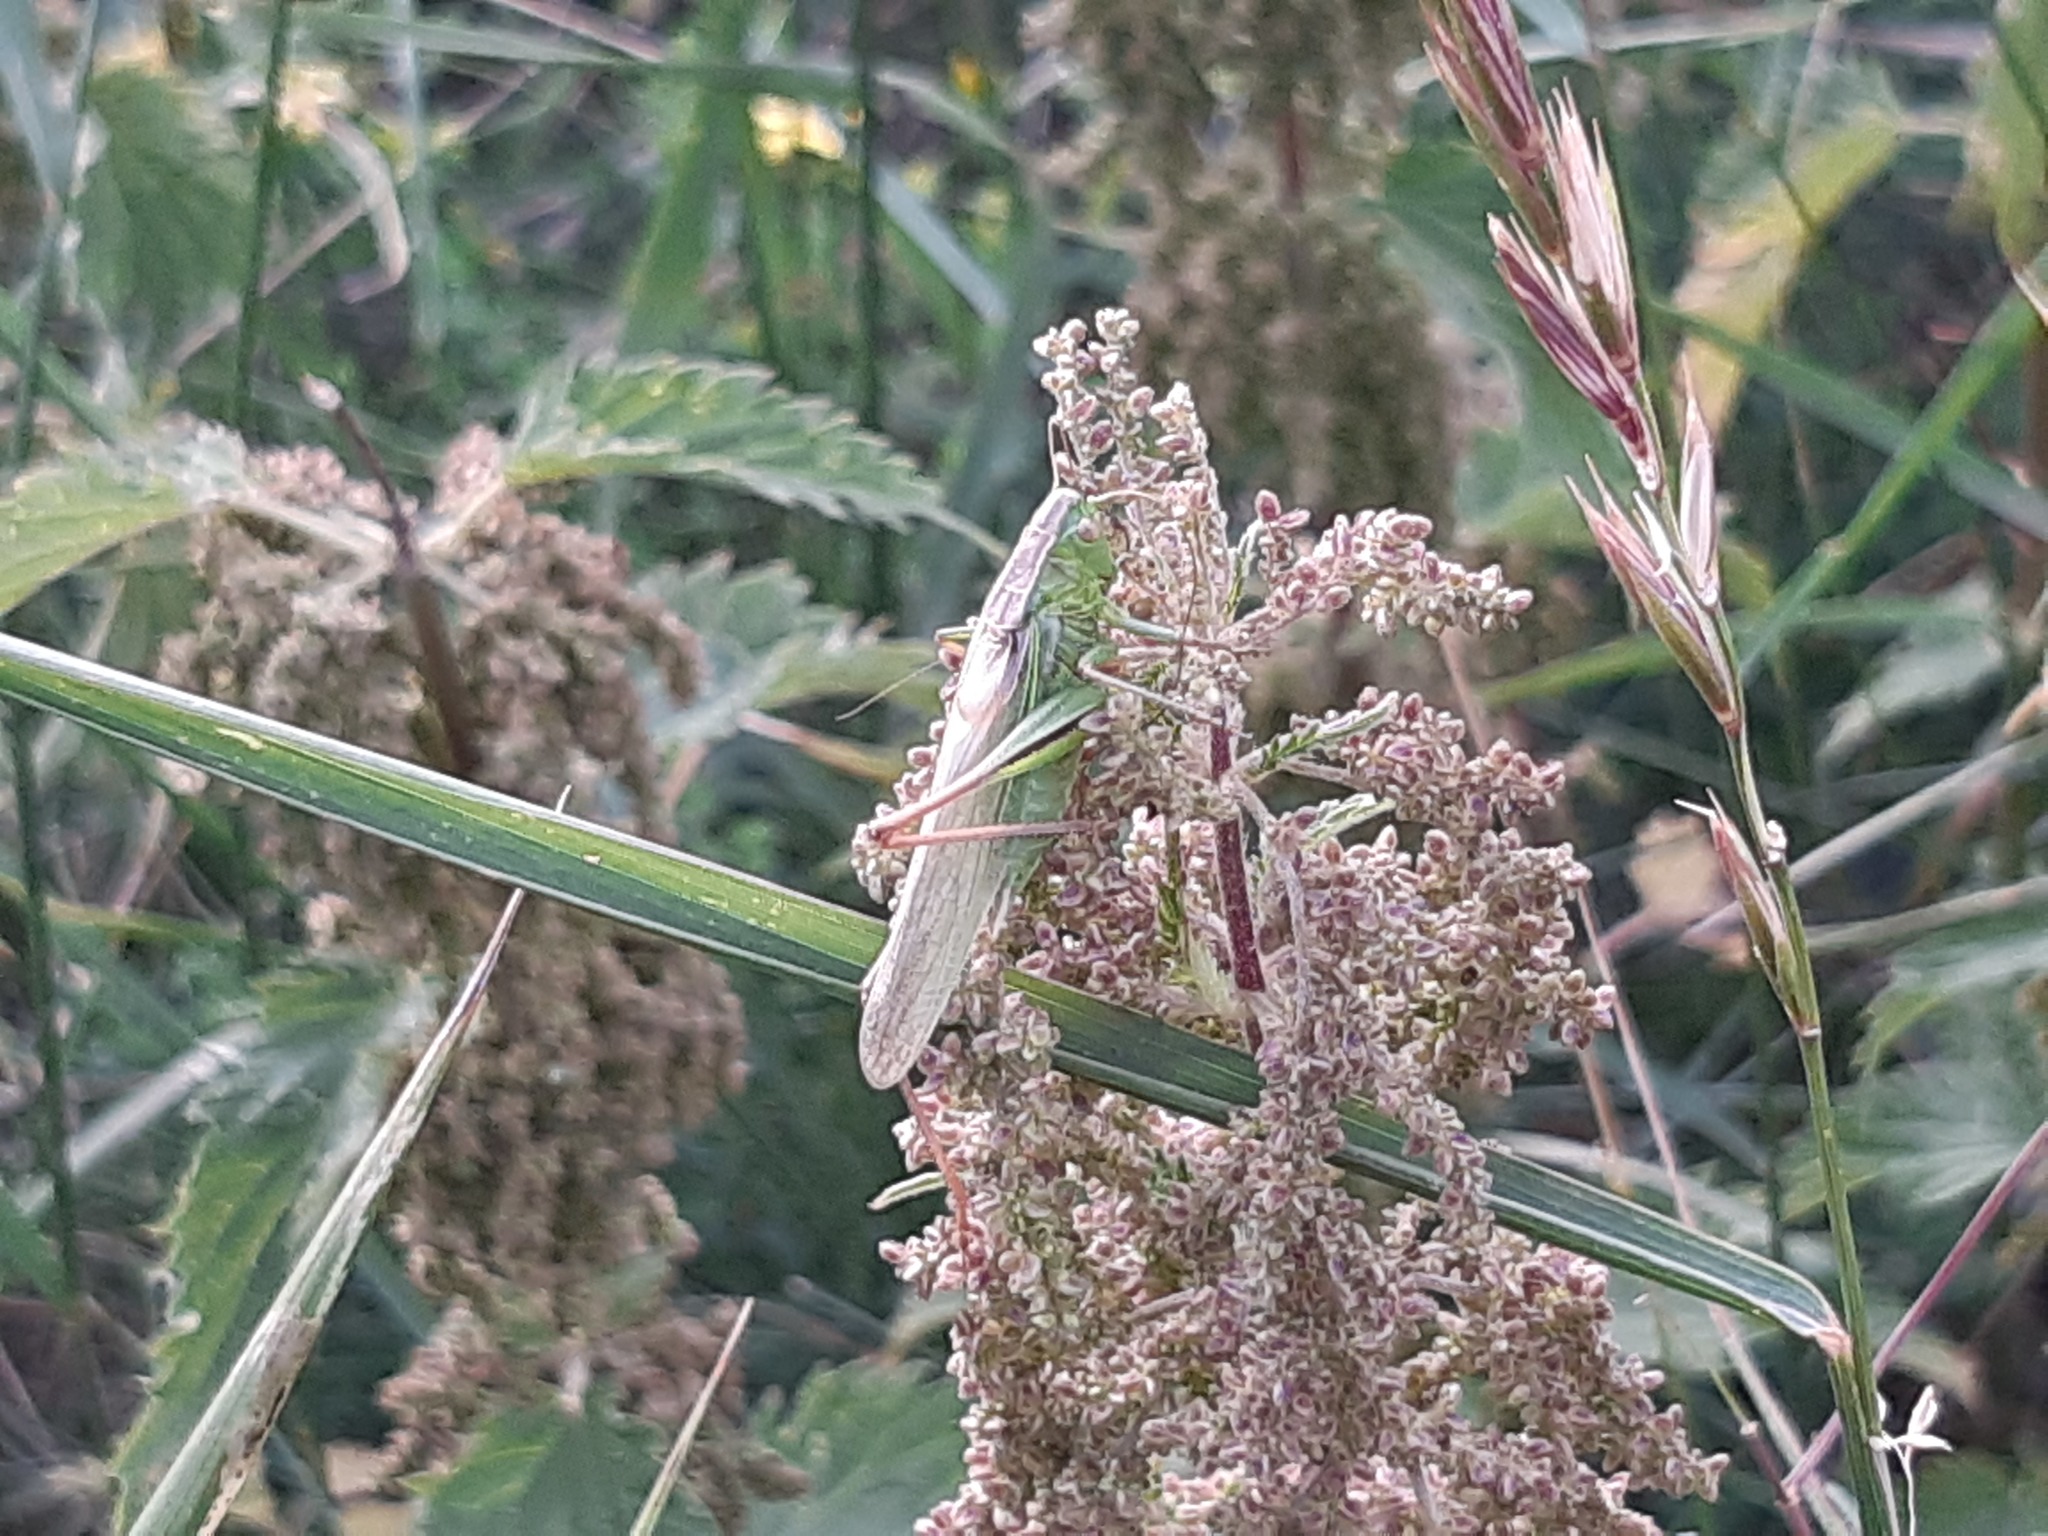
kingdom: Animalia
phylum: Arthropoda
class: Insecta
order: Orthoptera
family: Tettigoniidae
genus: Bicolorana
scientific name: Bicolorana bicolor
